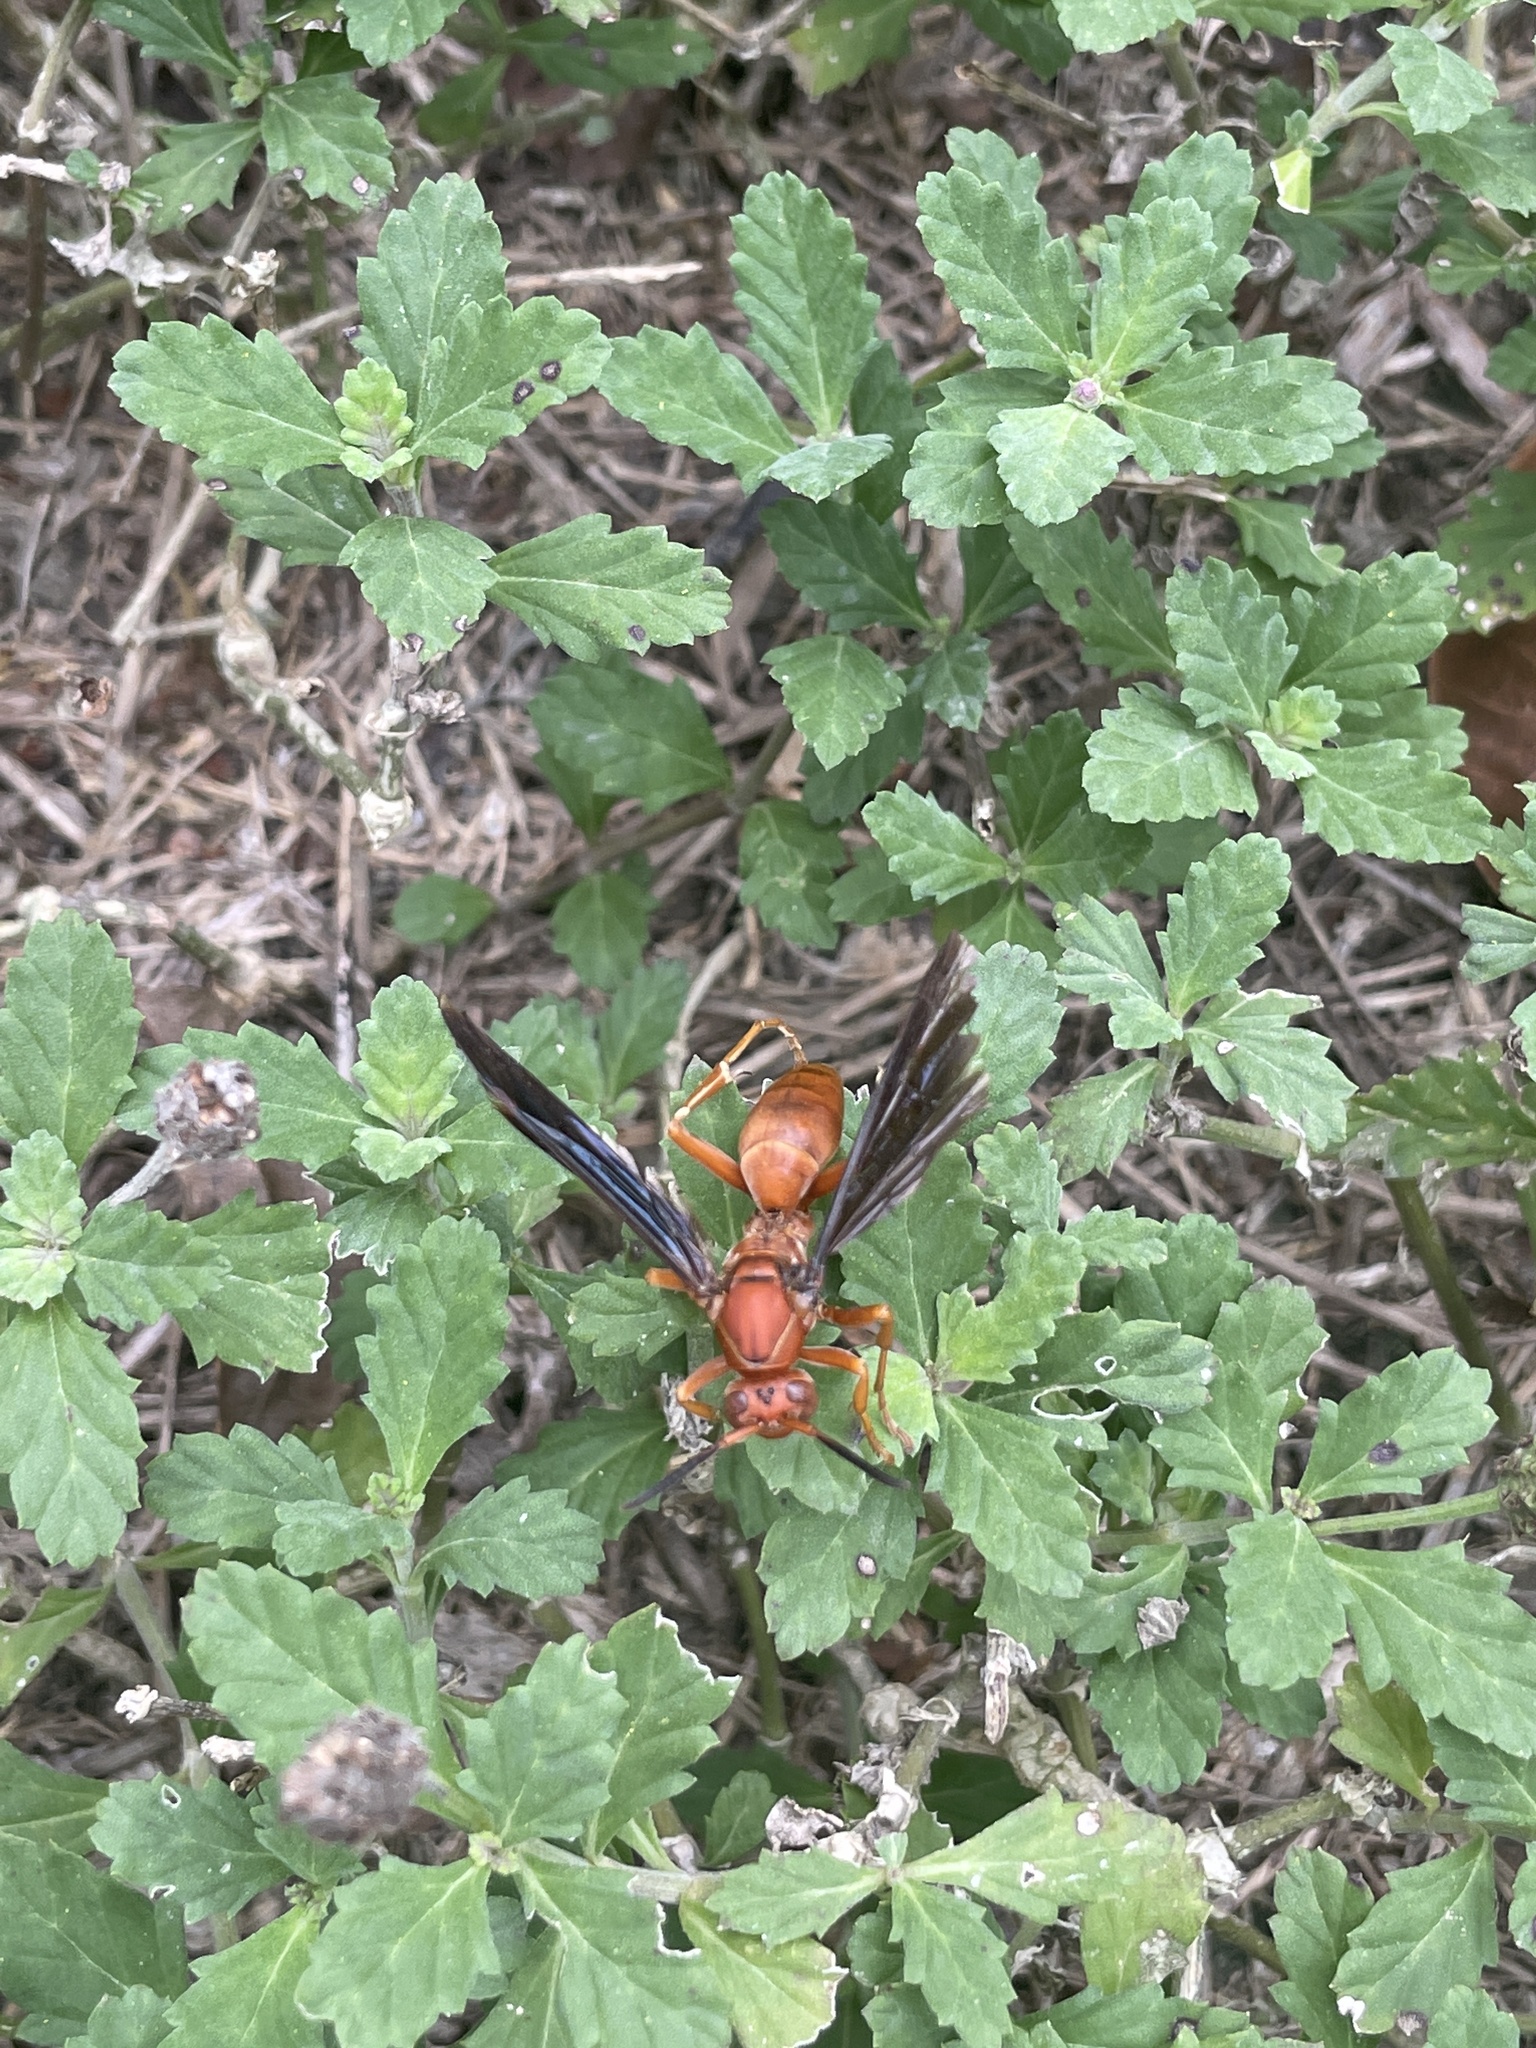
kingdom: Animalia
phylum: Arthropoda
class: Insecta
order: Hymenoptera
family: Vespidae
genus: Fuscopolistes
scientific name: Fuscopolistes
